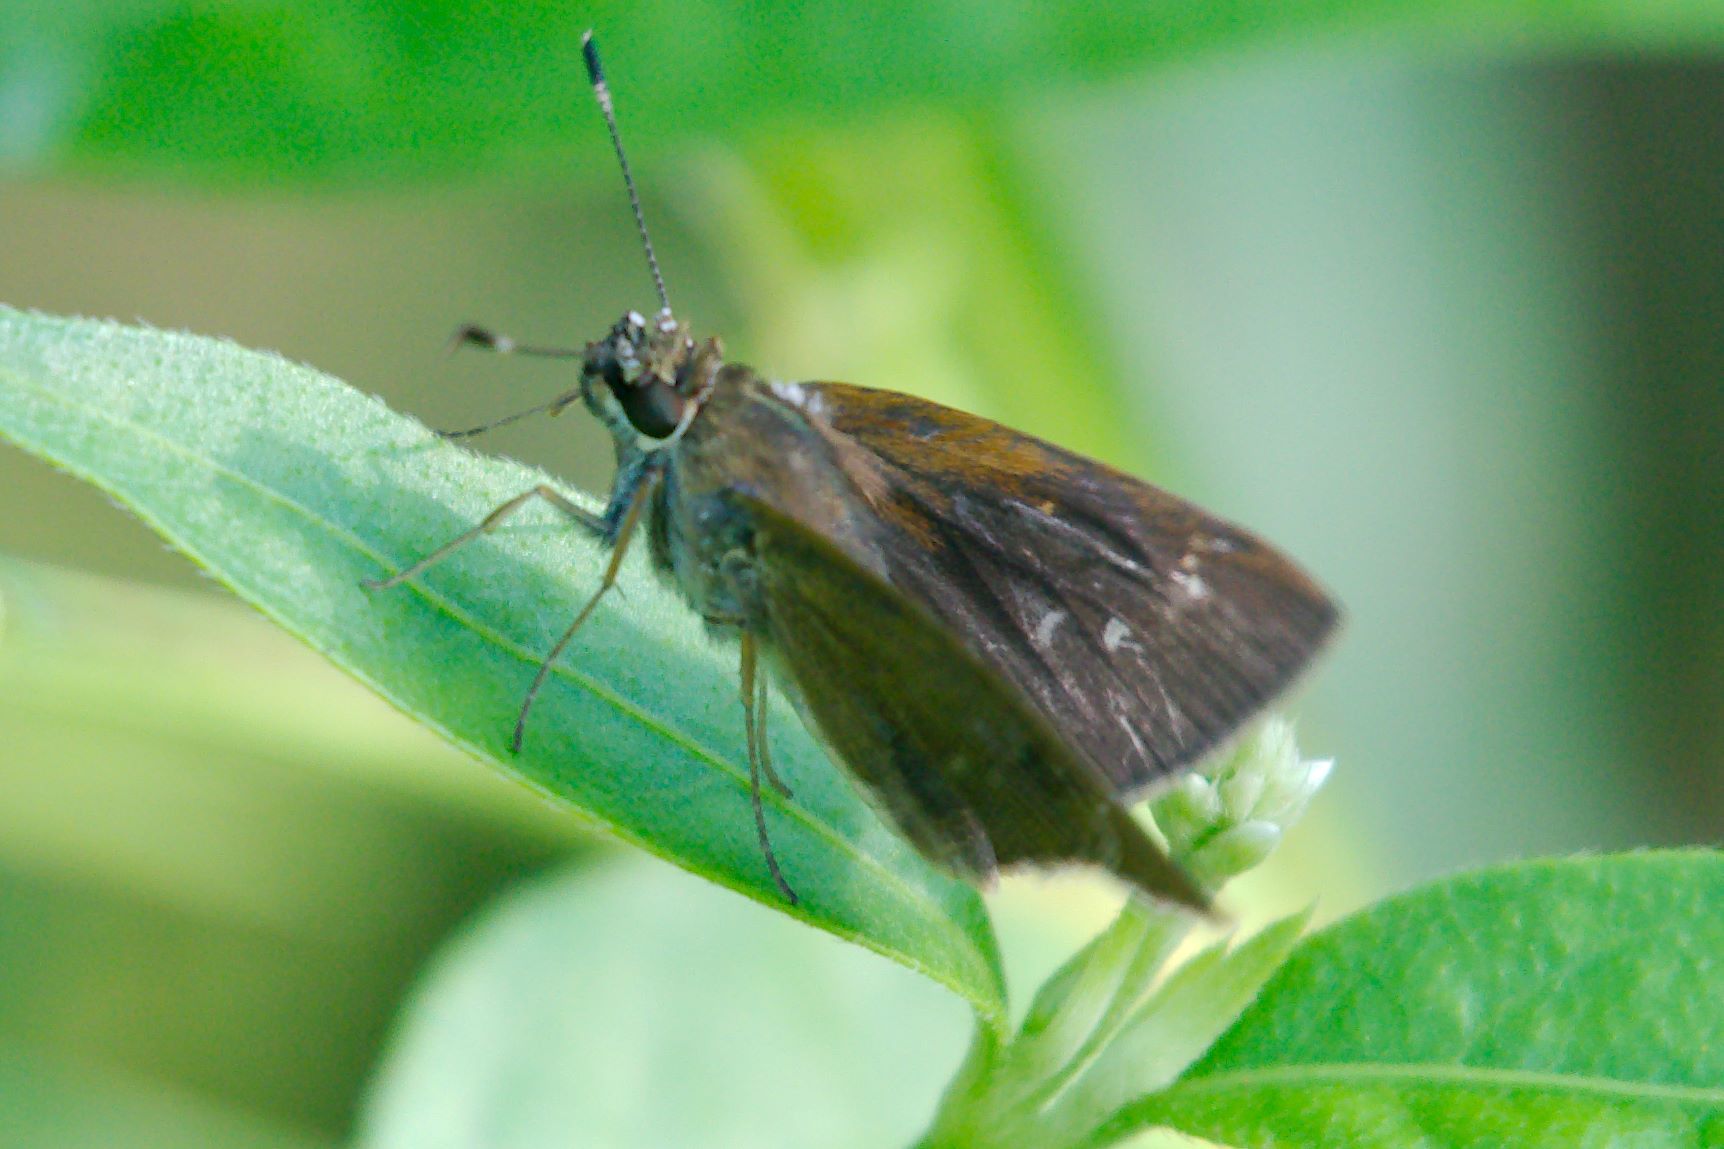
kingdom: Animalia
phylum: Arthropoda
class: Insecta
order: Lepidoptera
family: Hesperiidae
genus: Cymaenes
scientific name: Cymaenes tripunctus
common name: Dingy dotted skipper
